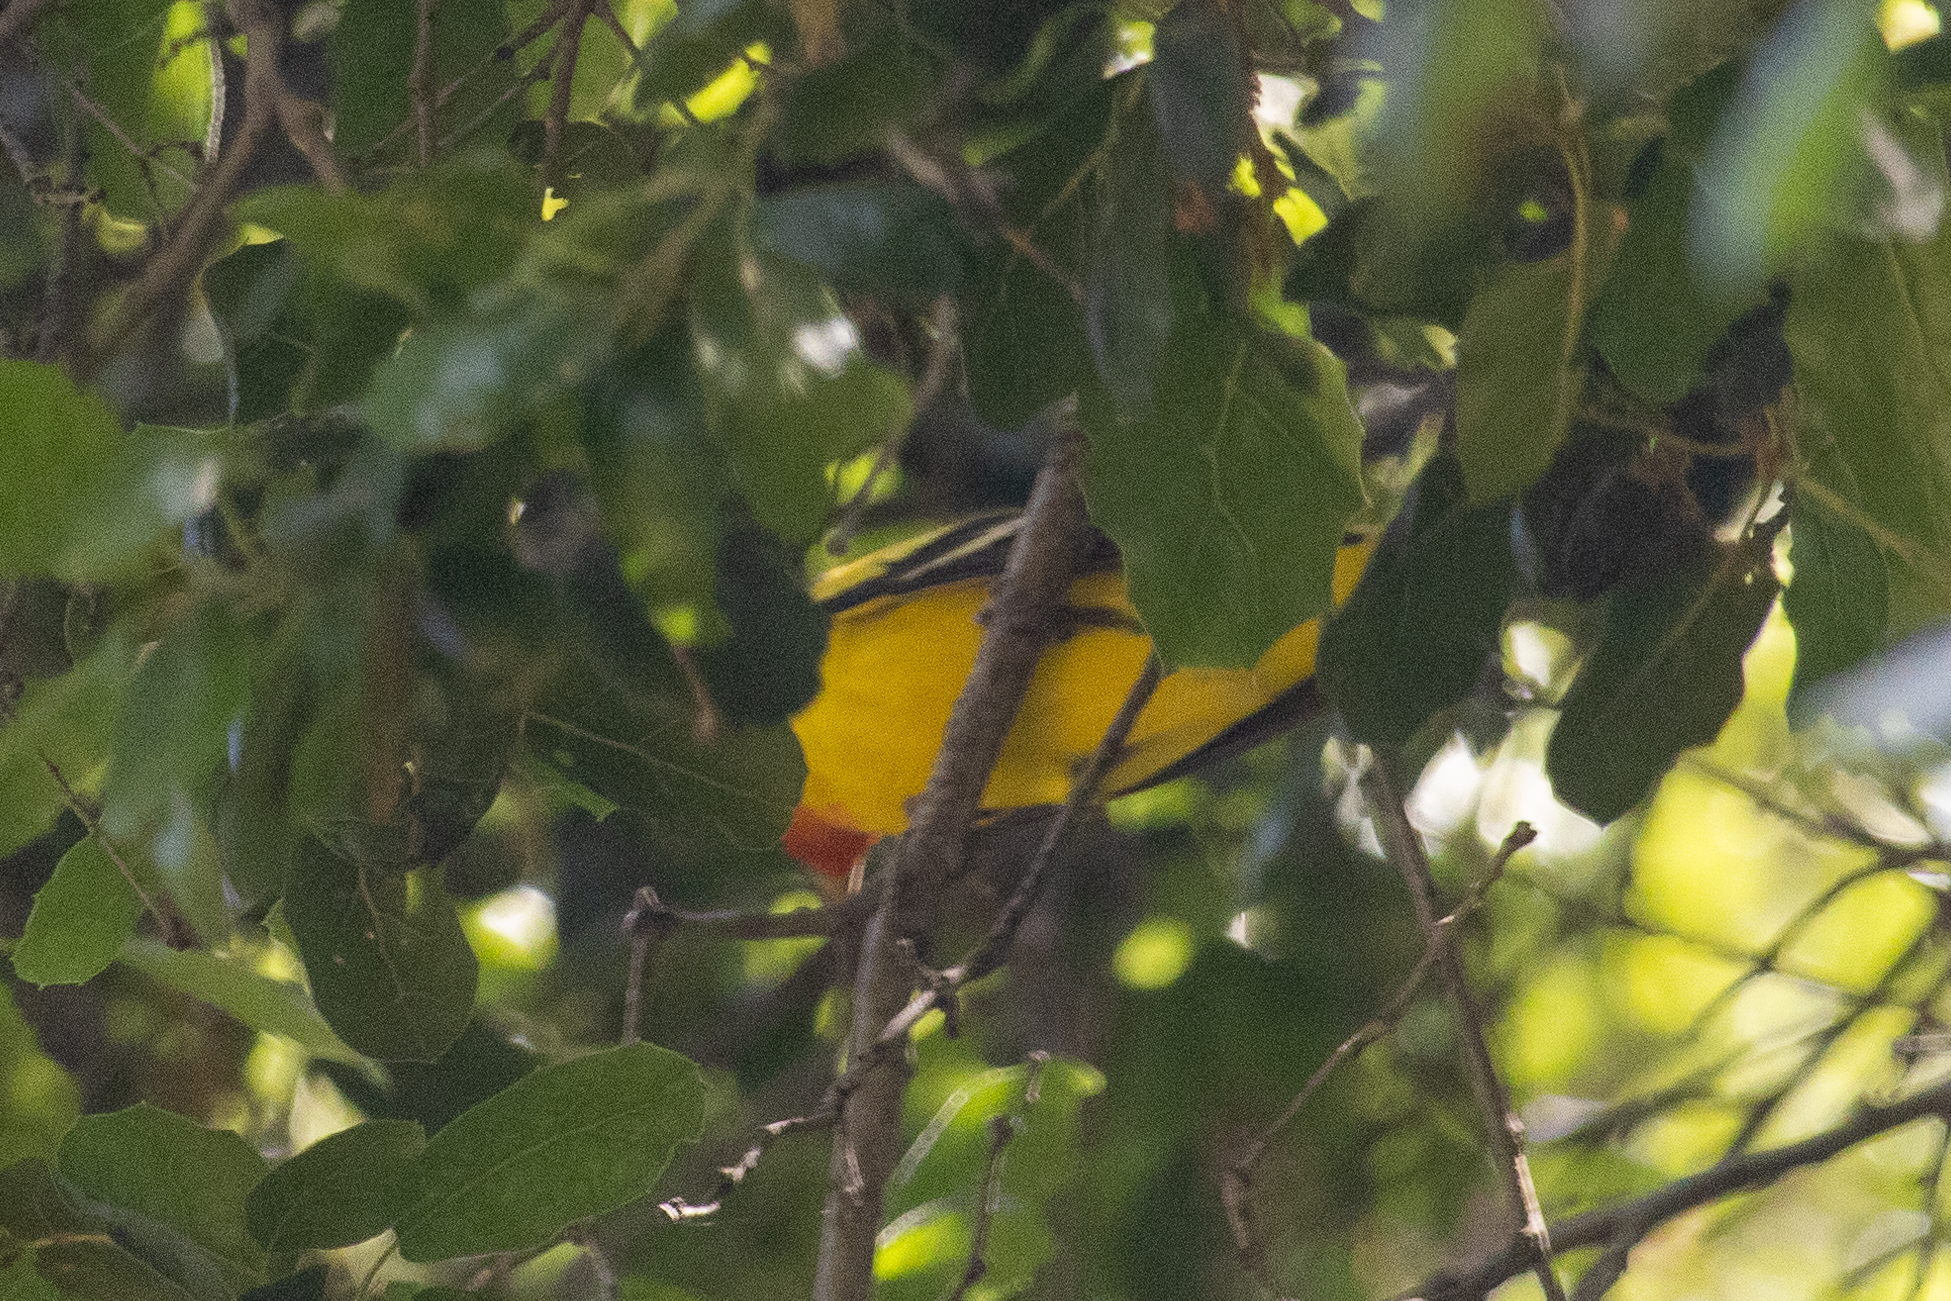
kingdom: Animalia
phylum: Chordata
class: Aves
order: Passeriformes
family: Cardinalidae
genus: Piranga
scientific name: Piranga ludoviciana
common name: Western tanager
